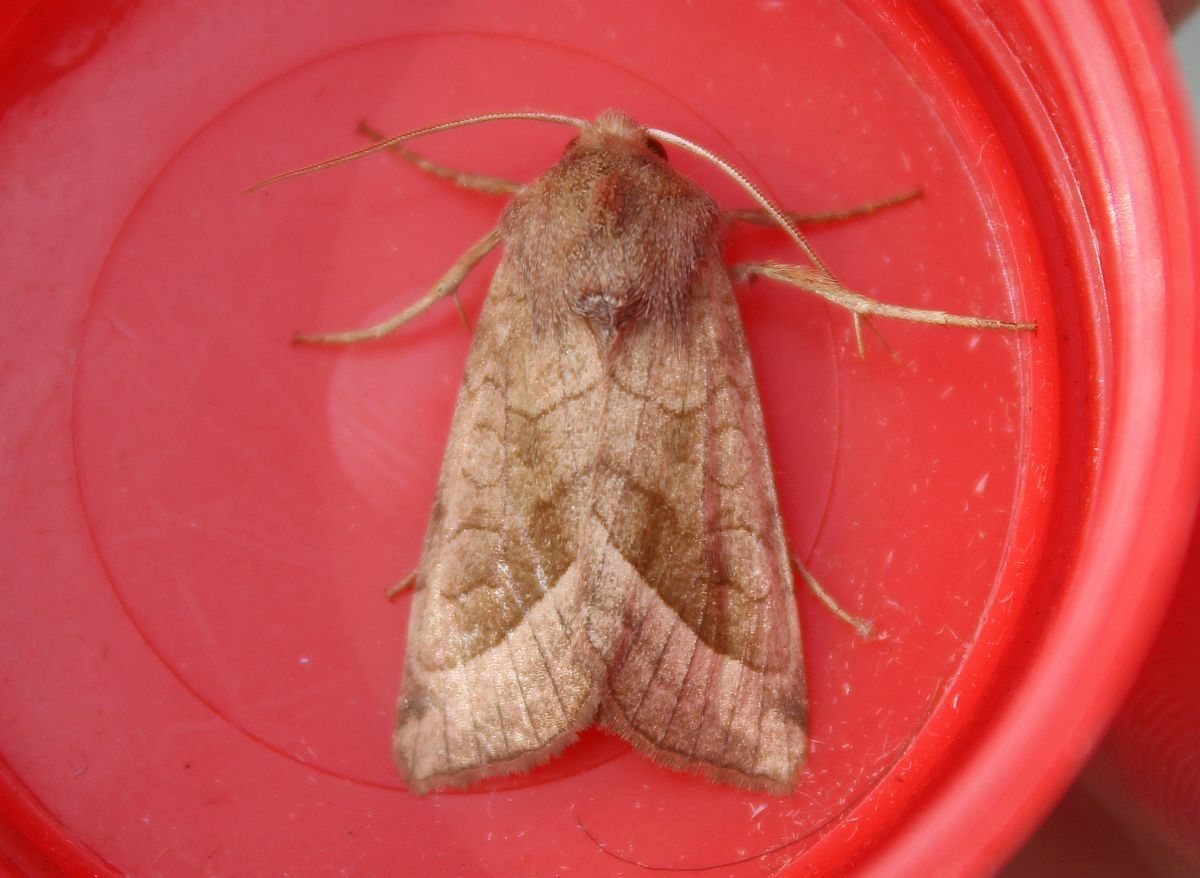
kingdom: Animalia
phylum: Arthropoda
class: Insecta
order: Lepidoptera
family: Noctuidae
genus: Hydraecia
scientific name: Hydraecia micacea
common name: Rosy rustic
